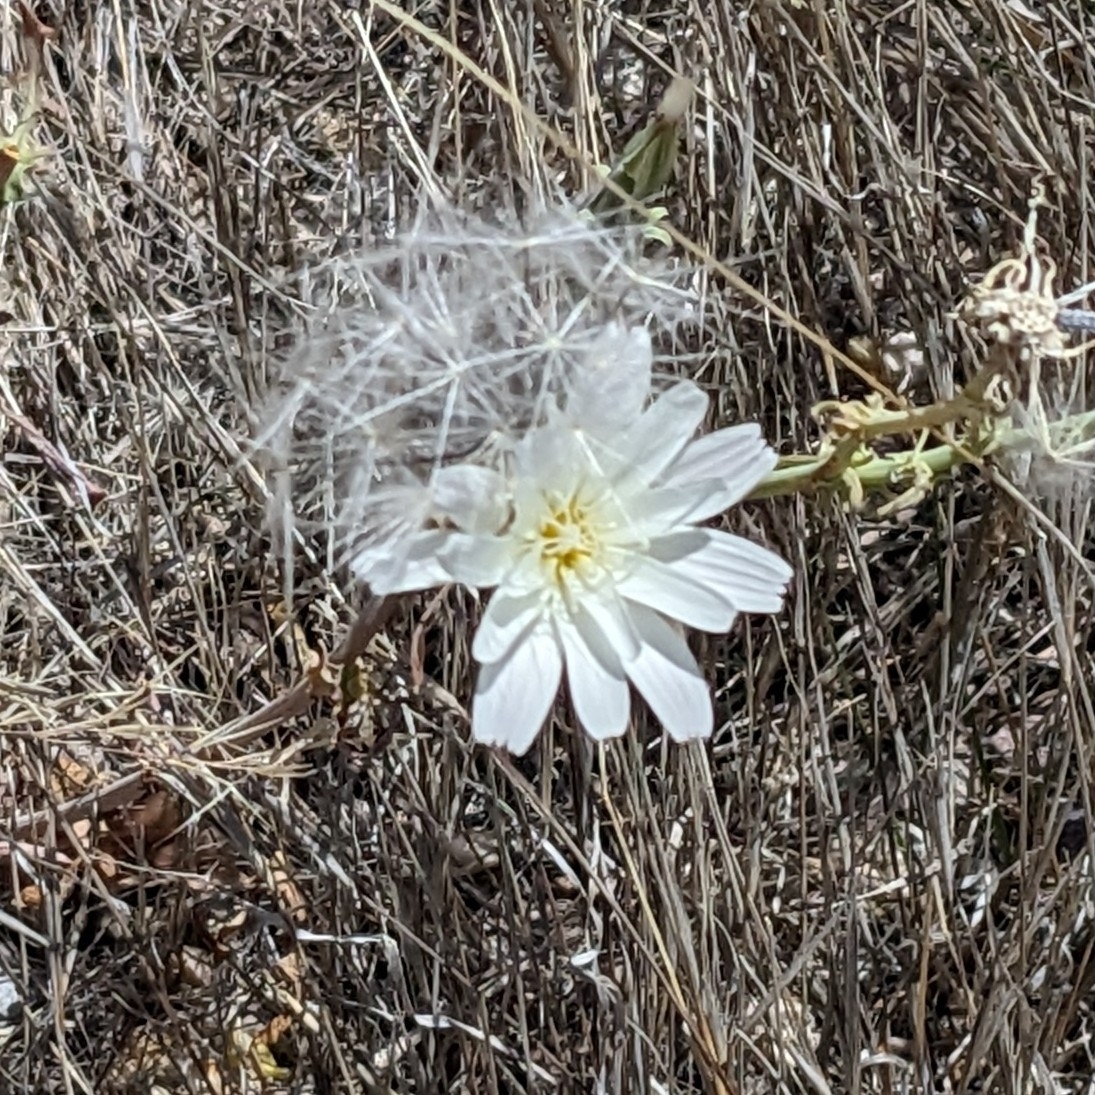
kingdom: Plantae
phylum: Tracheophyta
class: Magnoliopsida
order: Asterales
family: Asteraceae
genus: Rafinesquia
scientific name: Rafinesquia neomexicana
